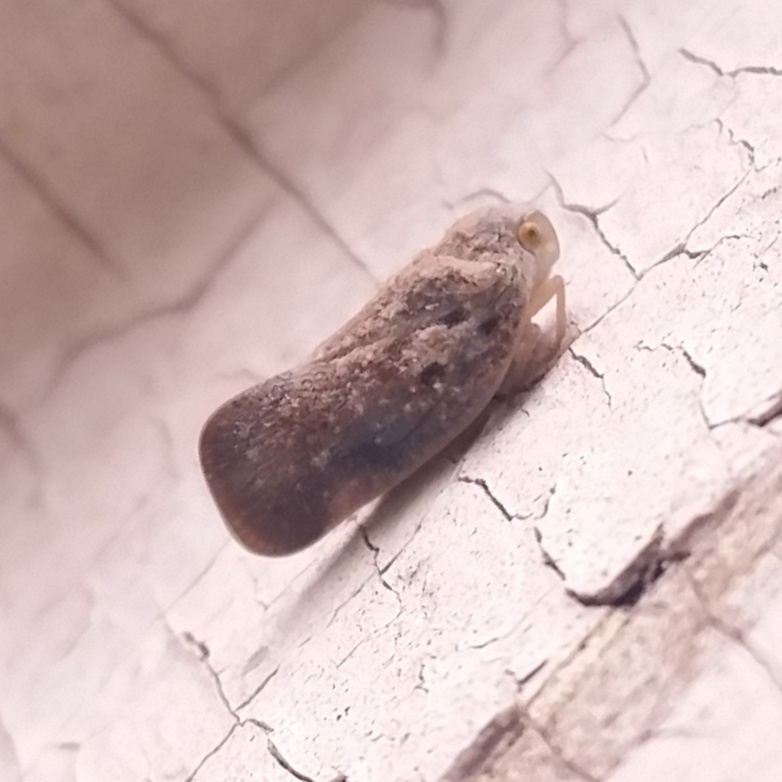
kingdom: Animalia
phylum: Arthropoda
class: Insecta
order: Hemiptera
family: Flatidae
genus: Metcalfa
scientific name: Metcalfa pruinosa
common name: Citrus flatid planthopper
